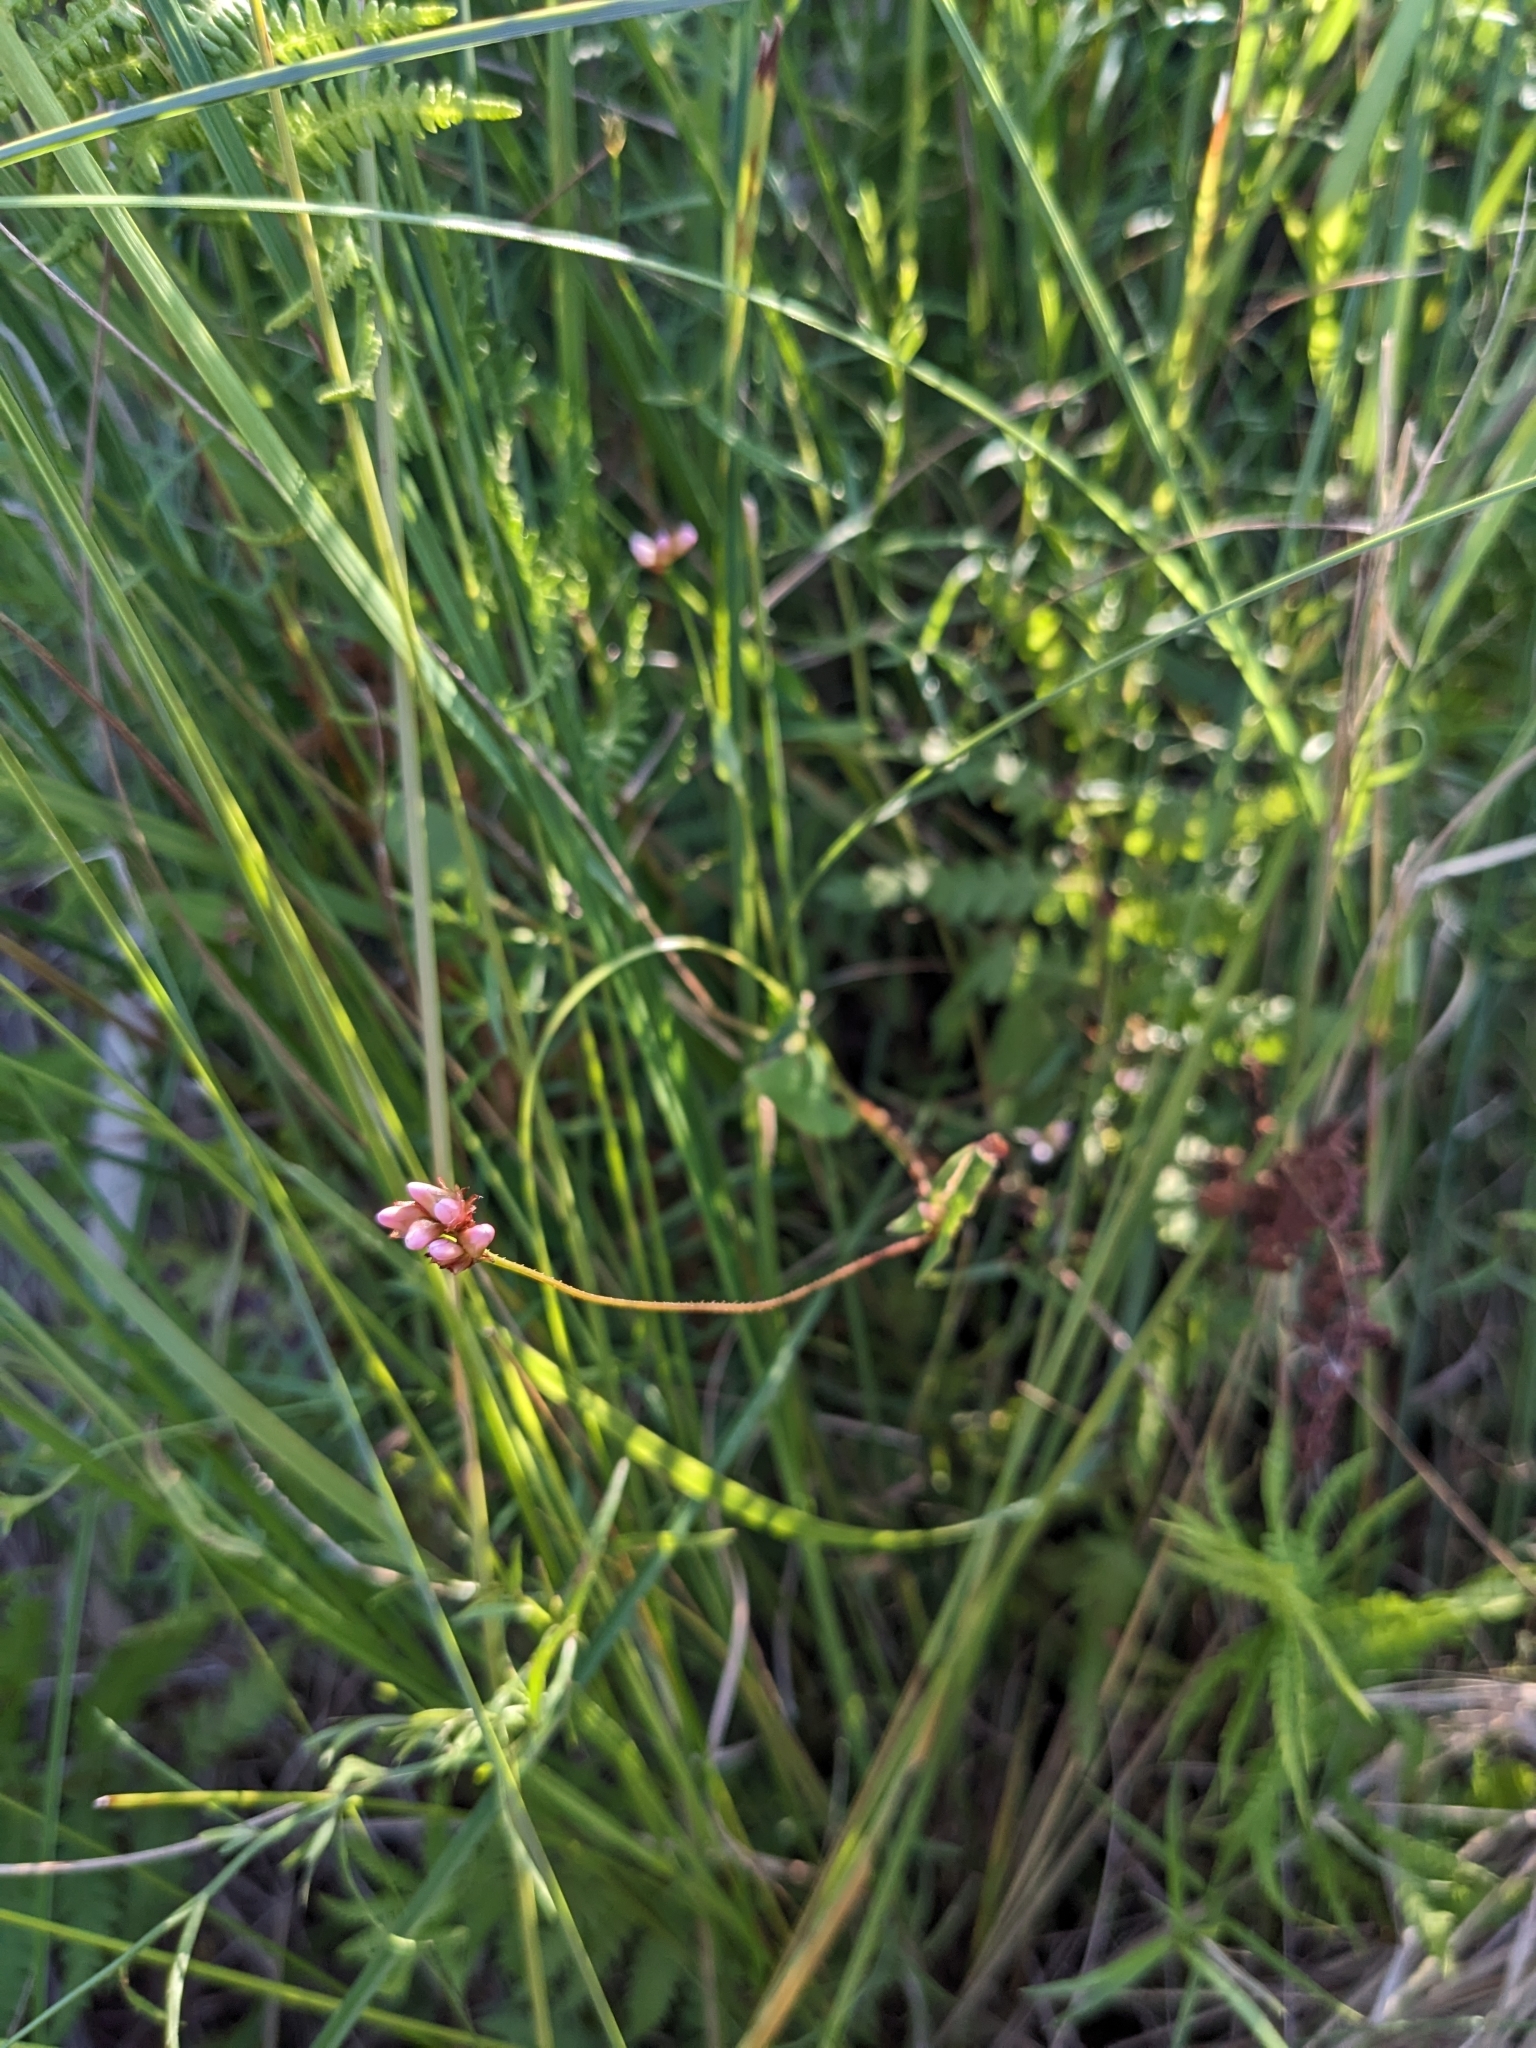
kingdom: Plantae
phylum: Tracheophyta
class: Magnoliopsida
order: Caryophyllales
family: Polygonaceae
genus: Persicaria
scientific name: Persicaria sagittata
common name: American tearthumb
